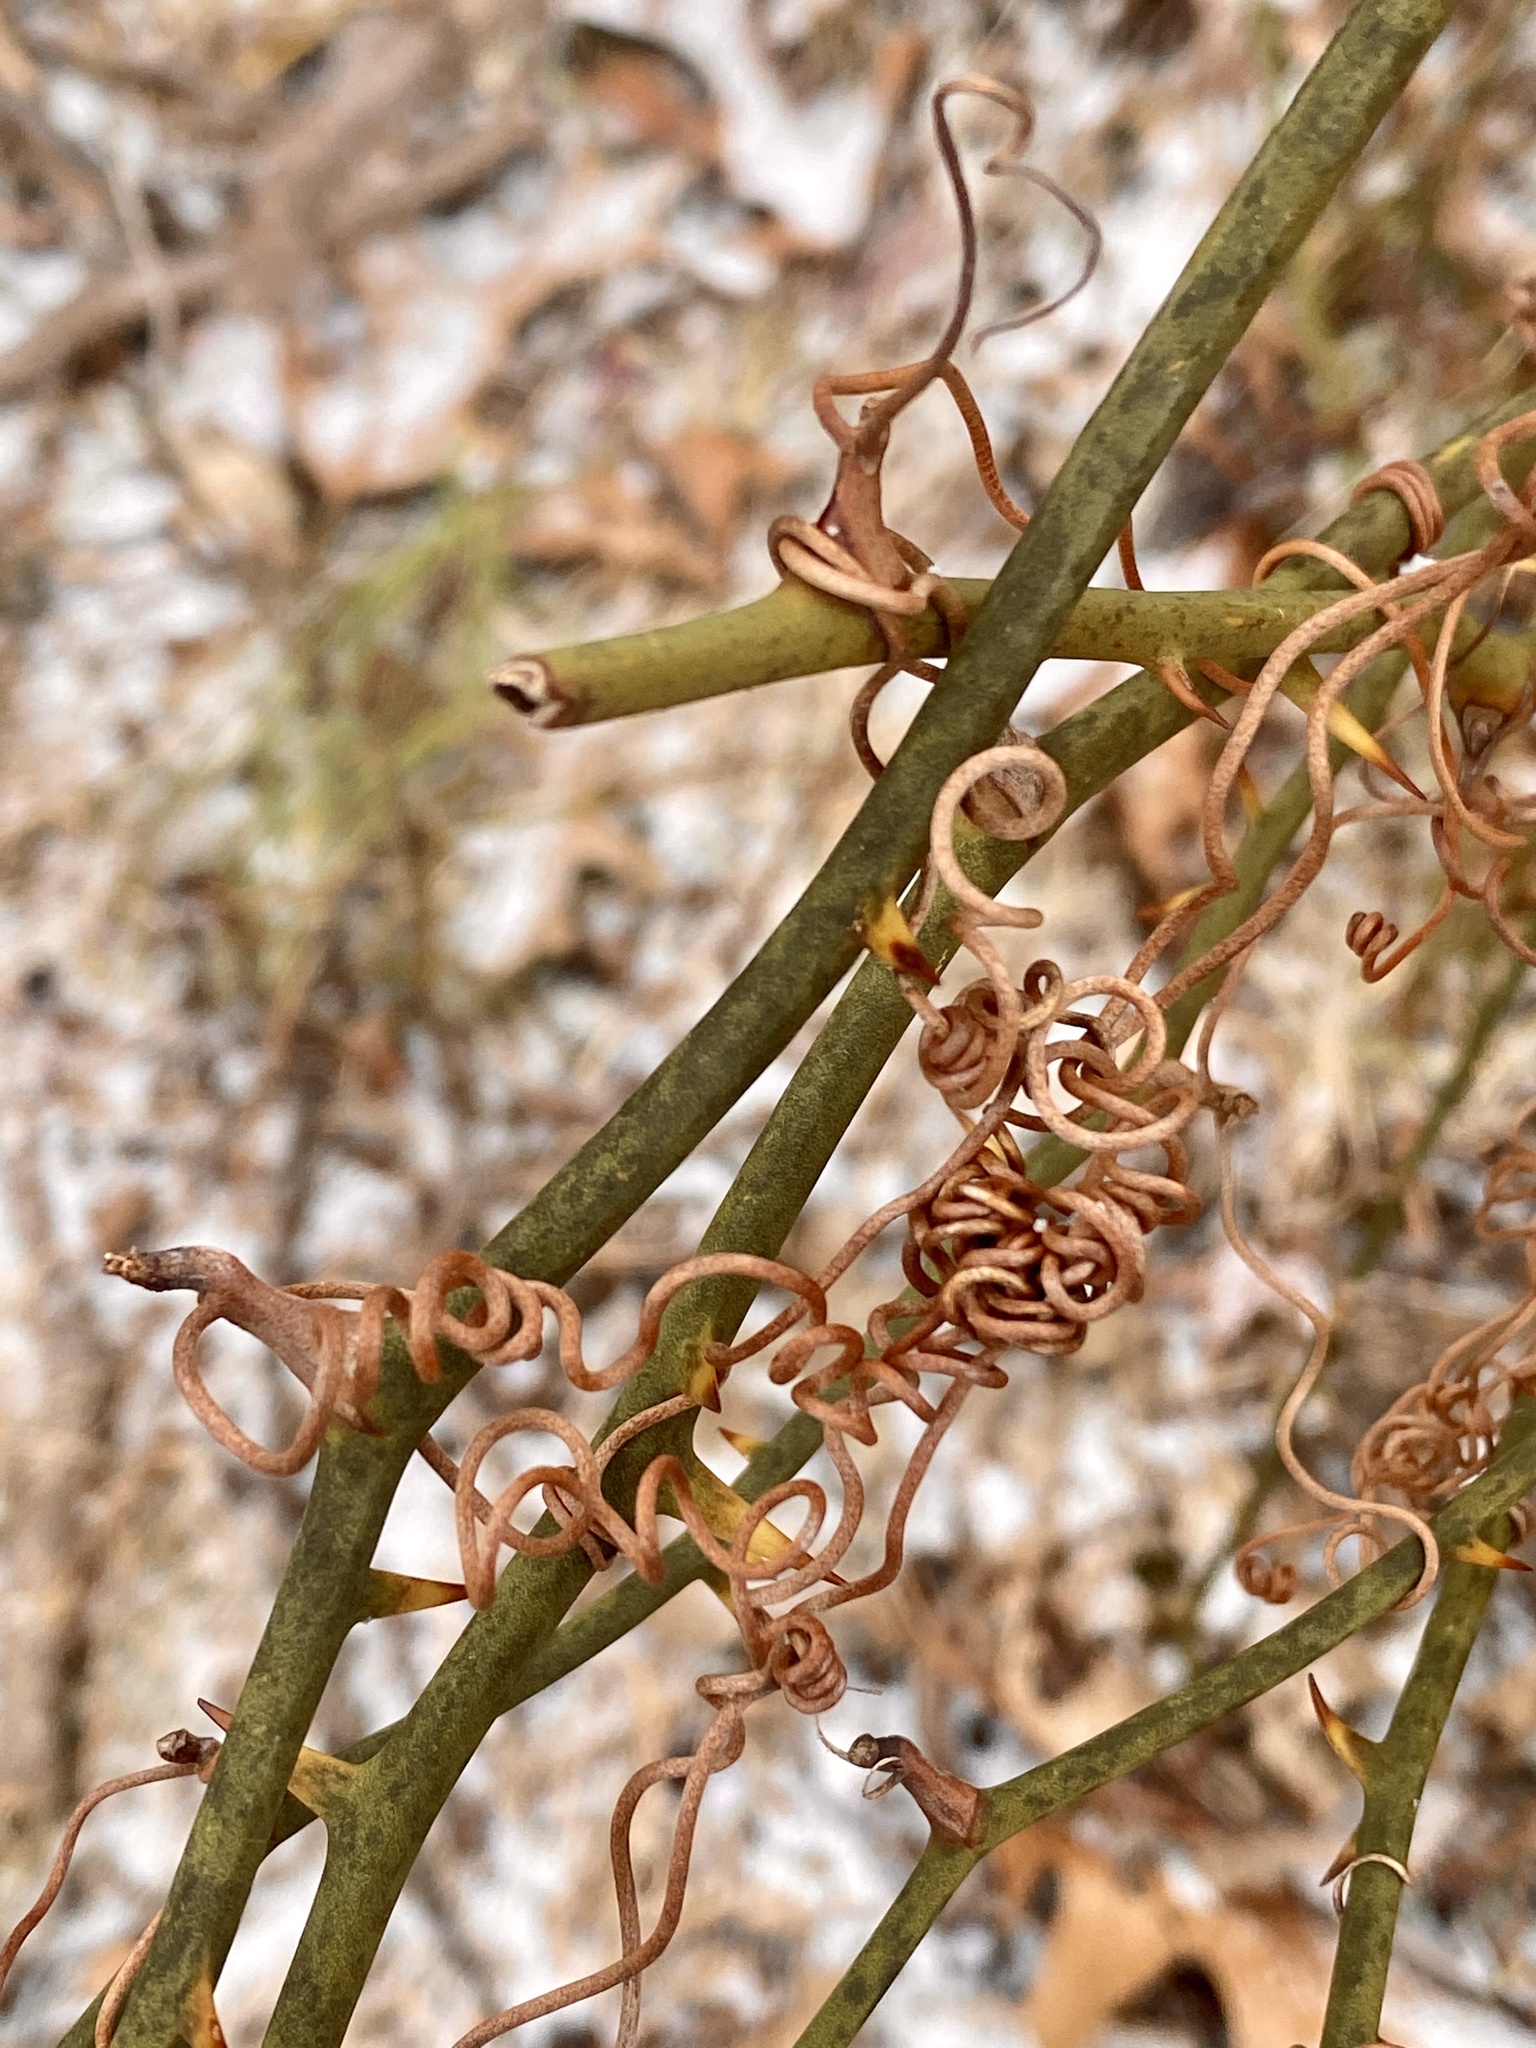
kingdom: Plantae
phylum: Tracheophyta
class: Liliopsida
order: Liliales
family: Smilacaceae
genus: Smilax
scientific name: Smilax rotundifolia
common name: Bullbriar
